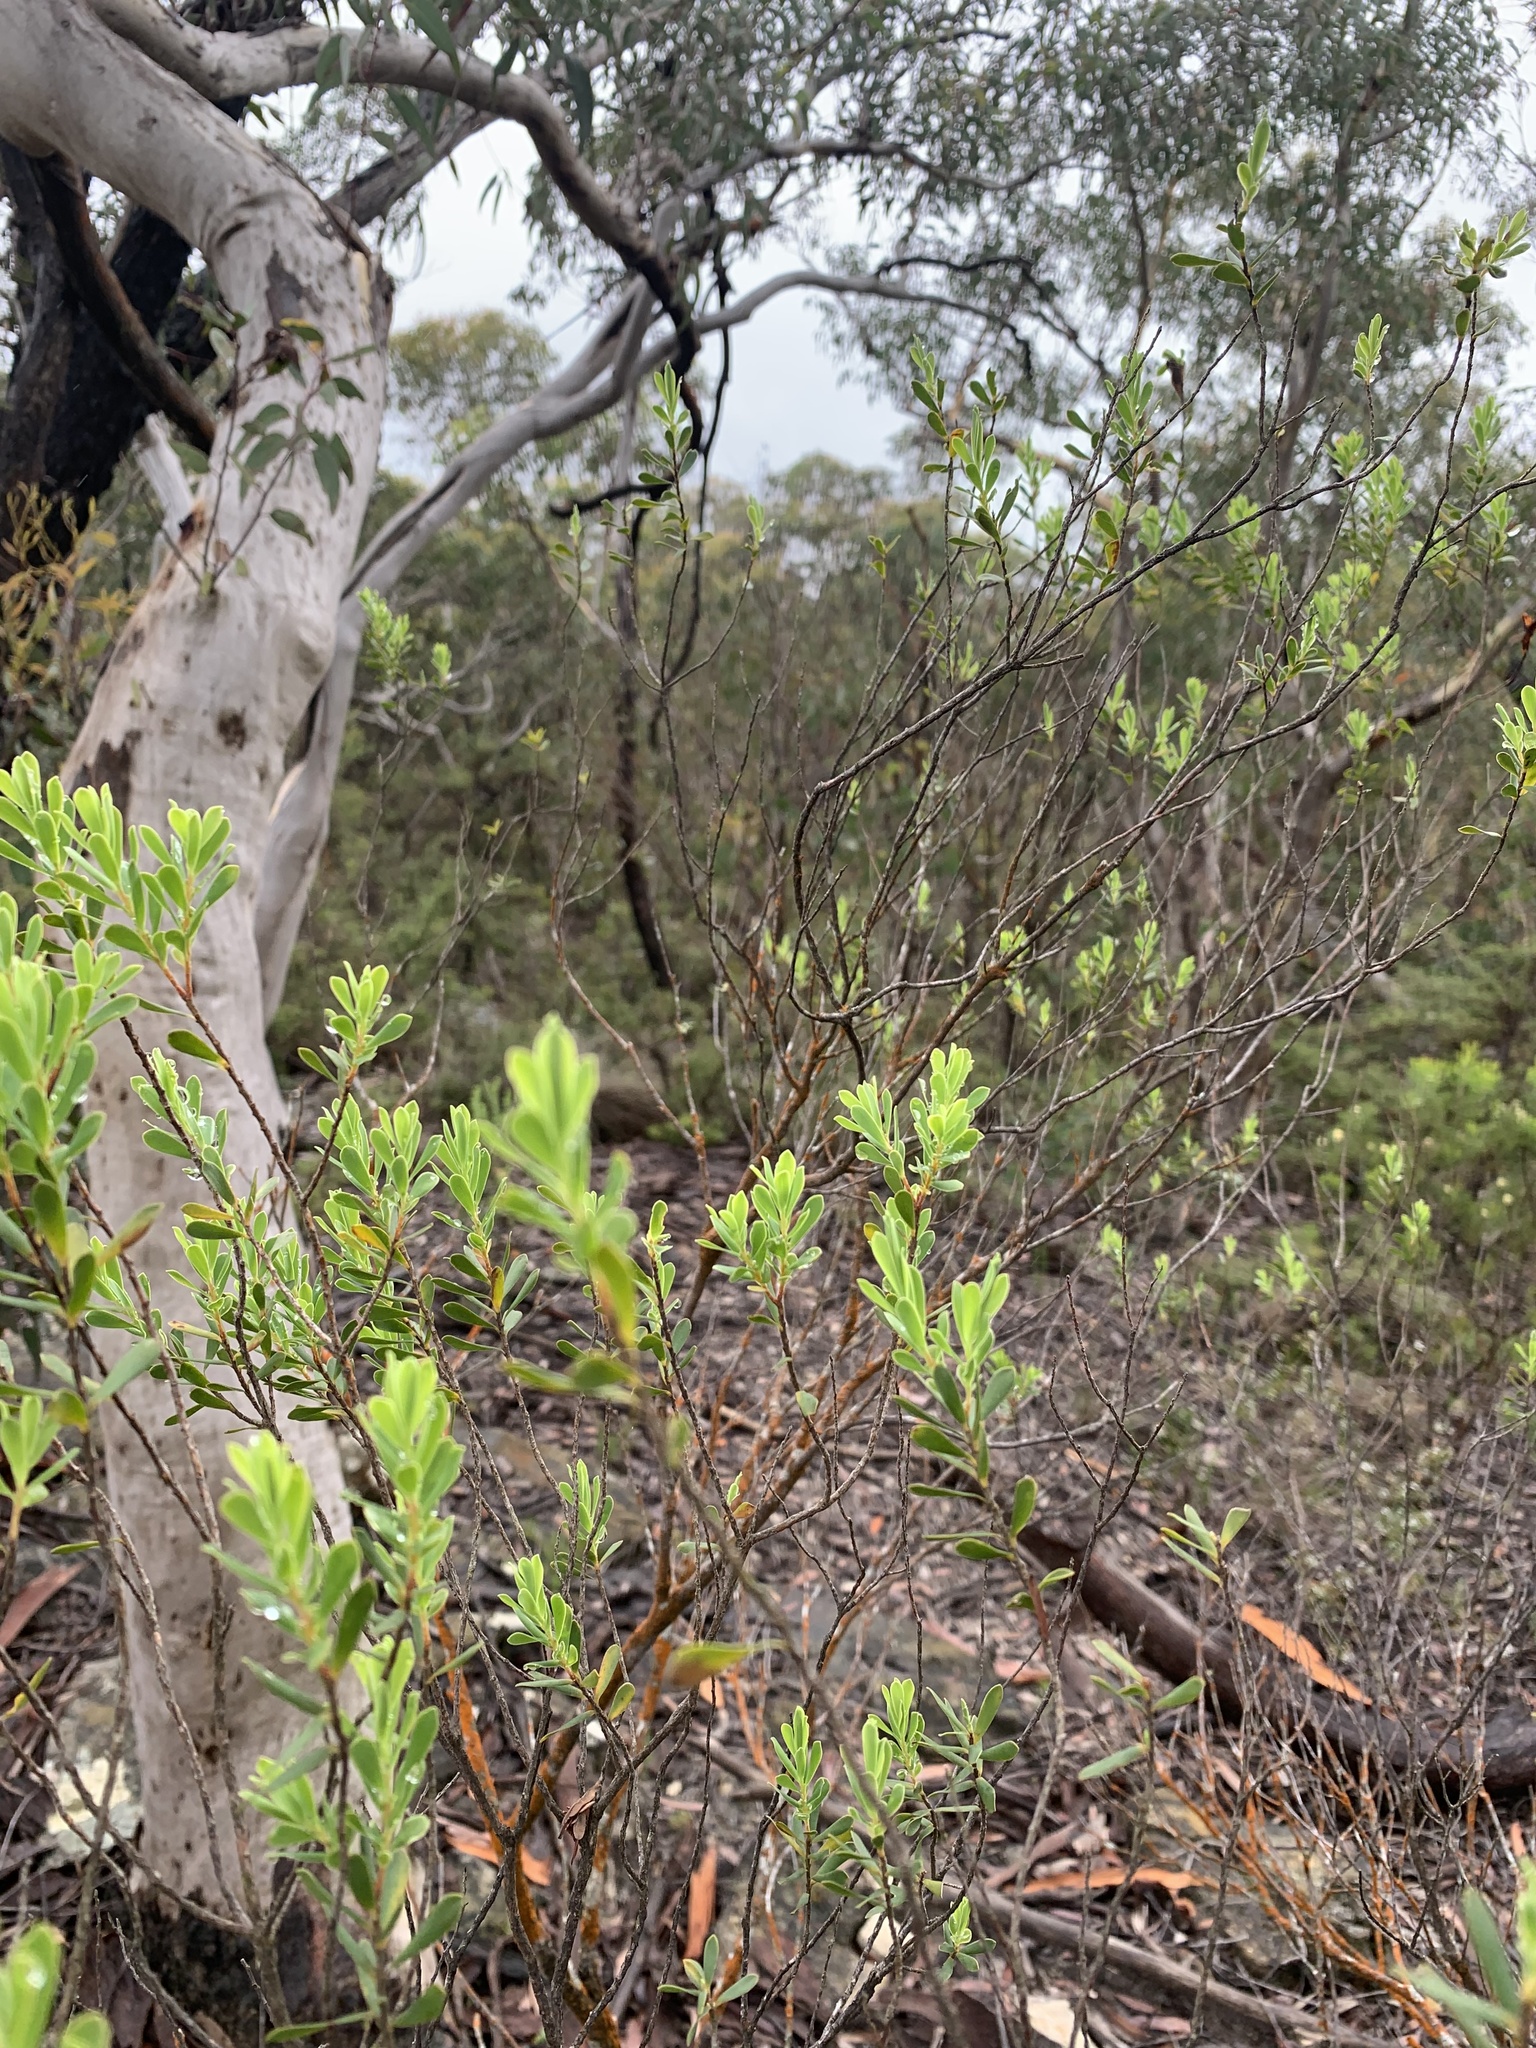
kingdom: Plantae
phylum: Tracheophyta
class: Magnoliopsida
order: Ericales
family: Ericaceae
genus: Styphelia
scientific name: Styphelia mutica
